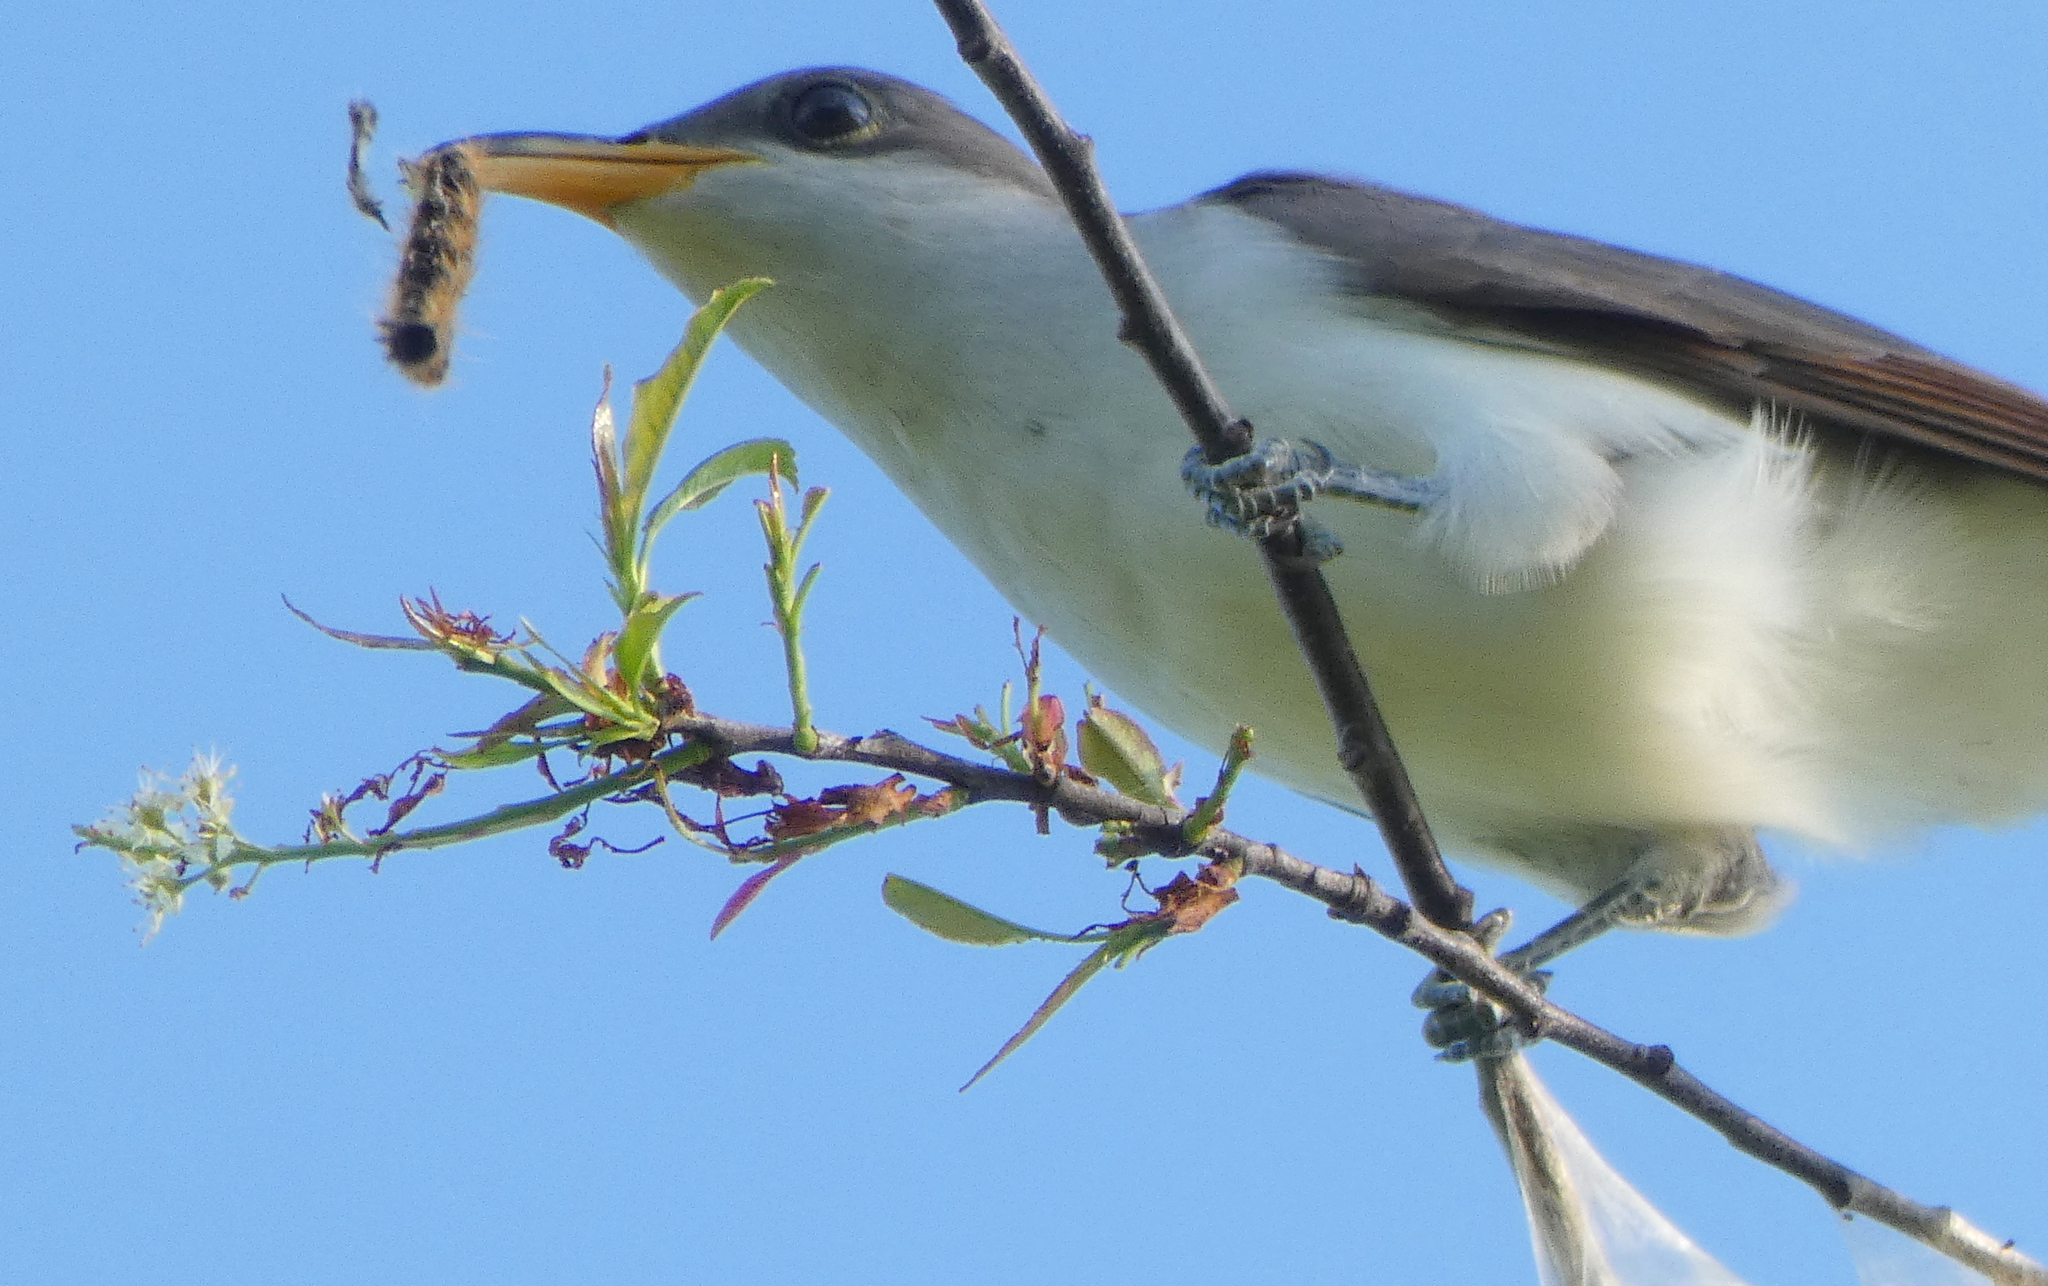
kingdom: Animalia
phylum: Chordata
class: Aves
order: Cuculiformes
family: Cuculidae
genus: Coccyzus
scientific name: Coccyzus americanus
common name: Yellow-billed cuckoo
